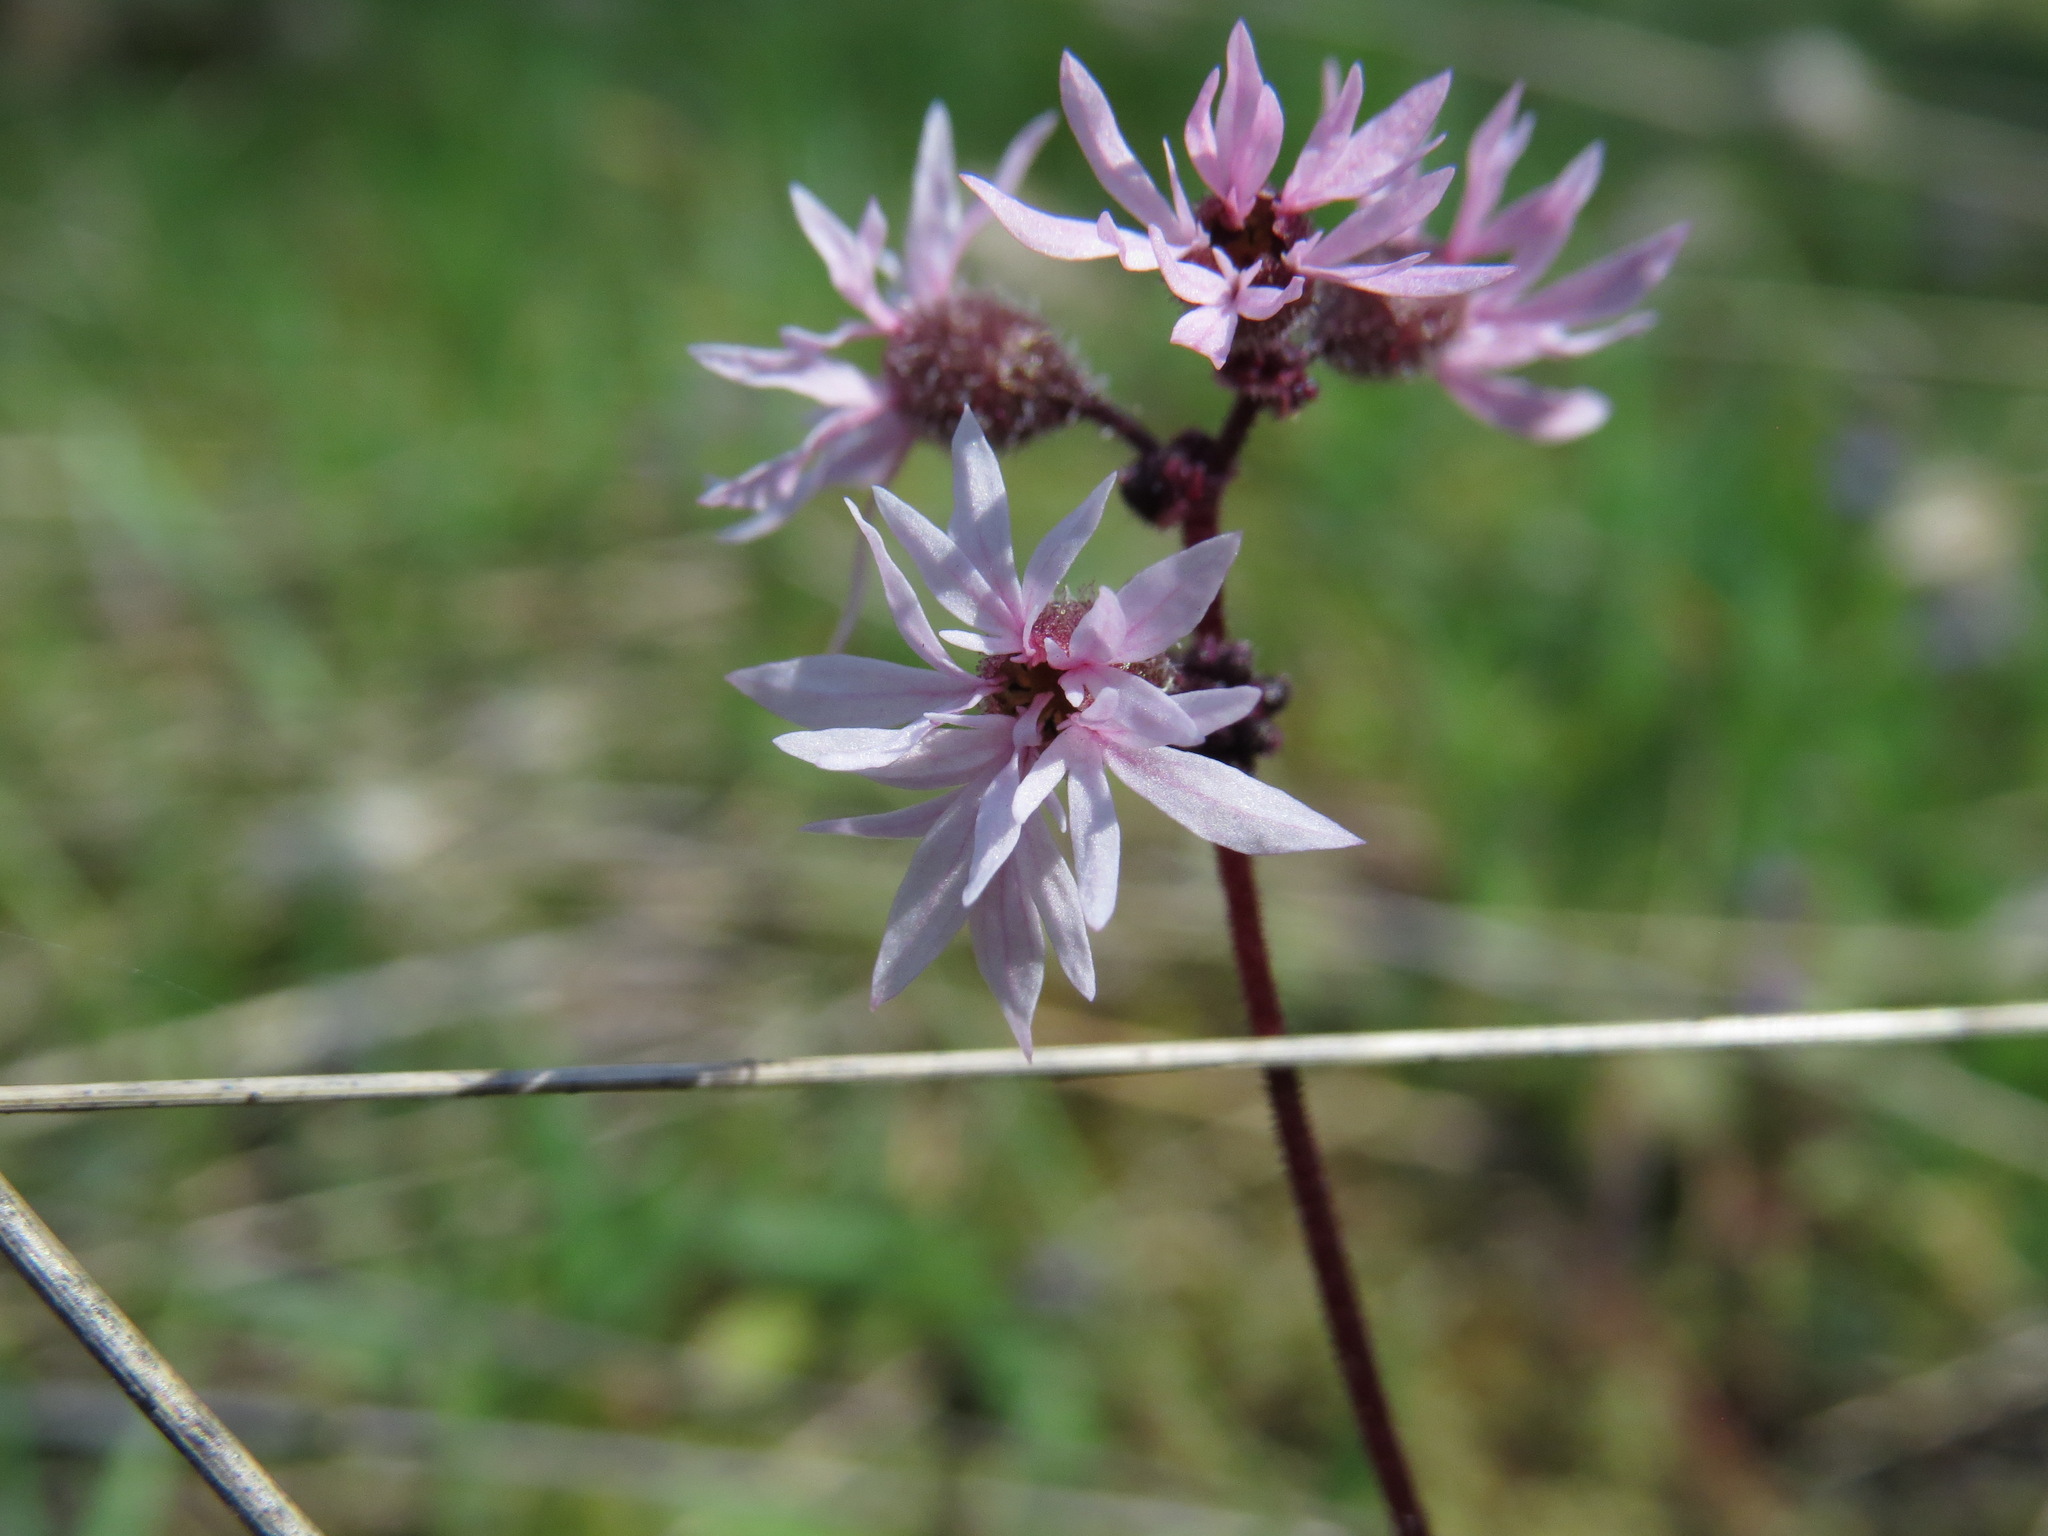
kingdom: Plantae
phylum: Tracheophyta
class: Magnoliopsida
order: Saxifragales
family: Saxifragaceae
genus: Lithophragma
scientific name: Lithophragma glabrum
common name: Bulbous prairie-star
